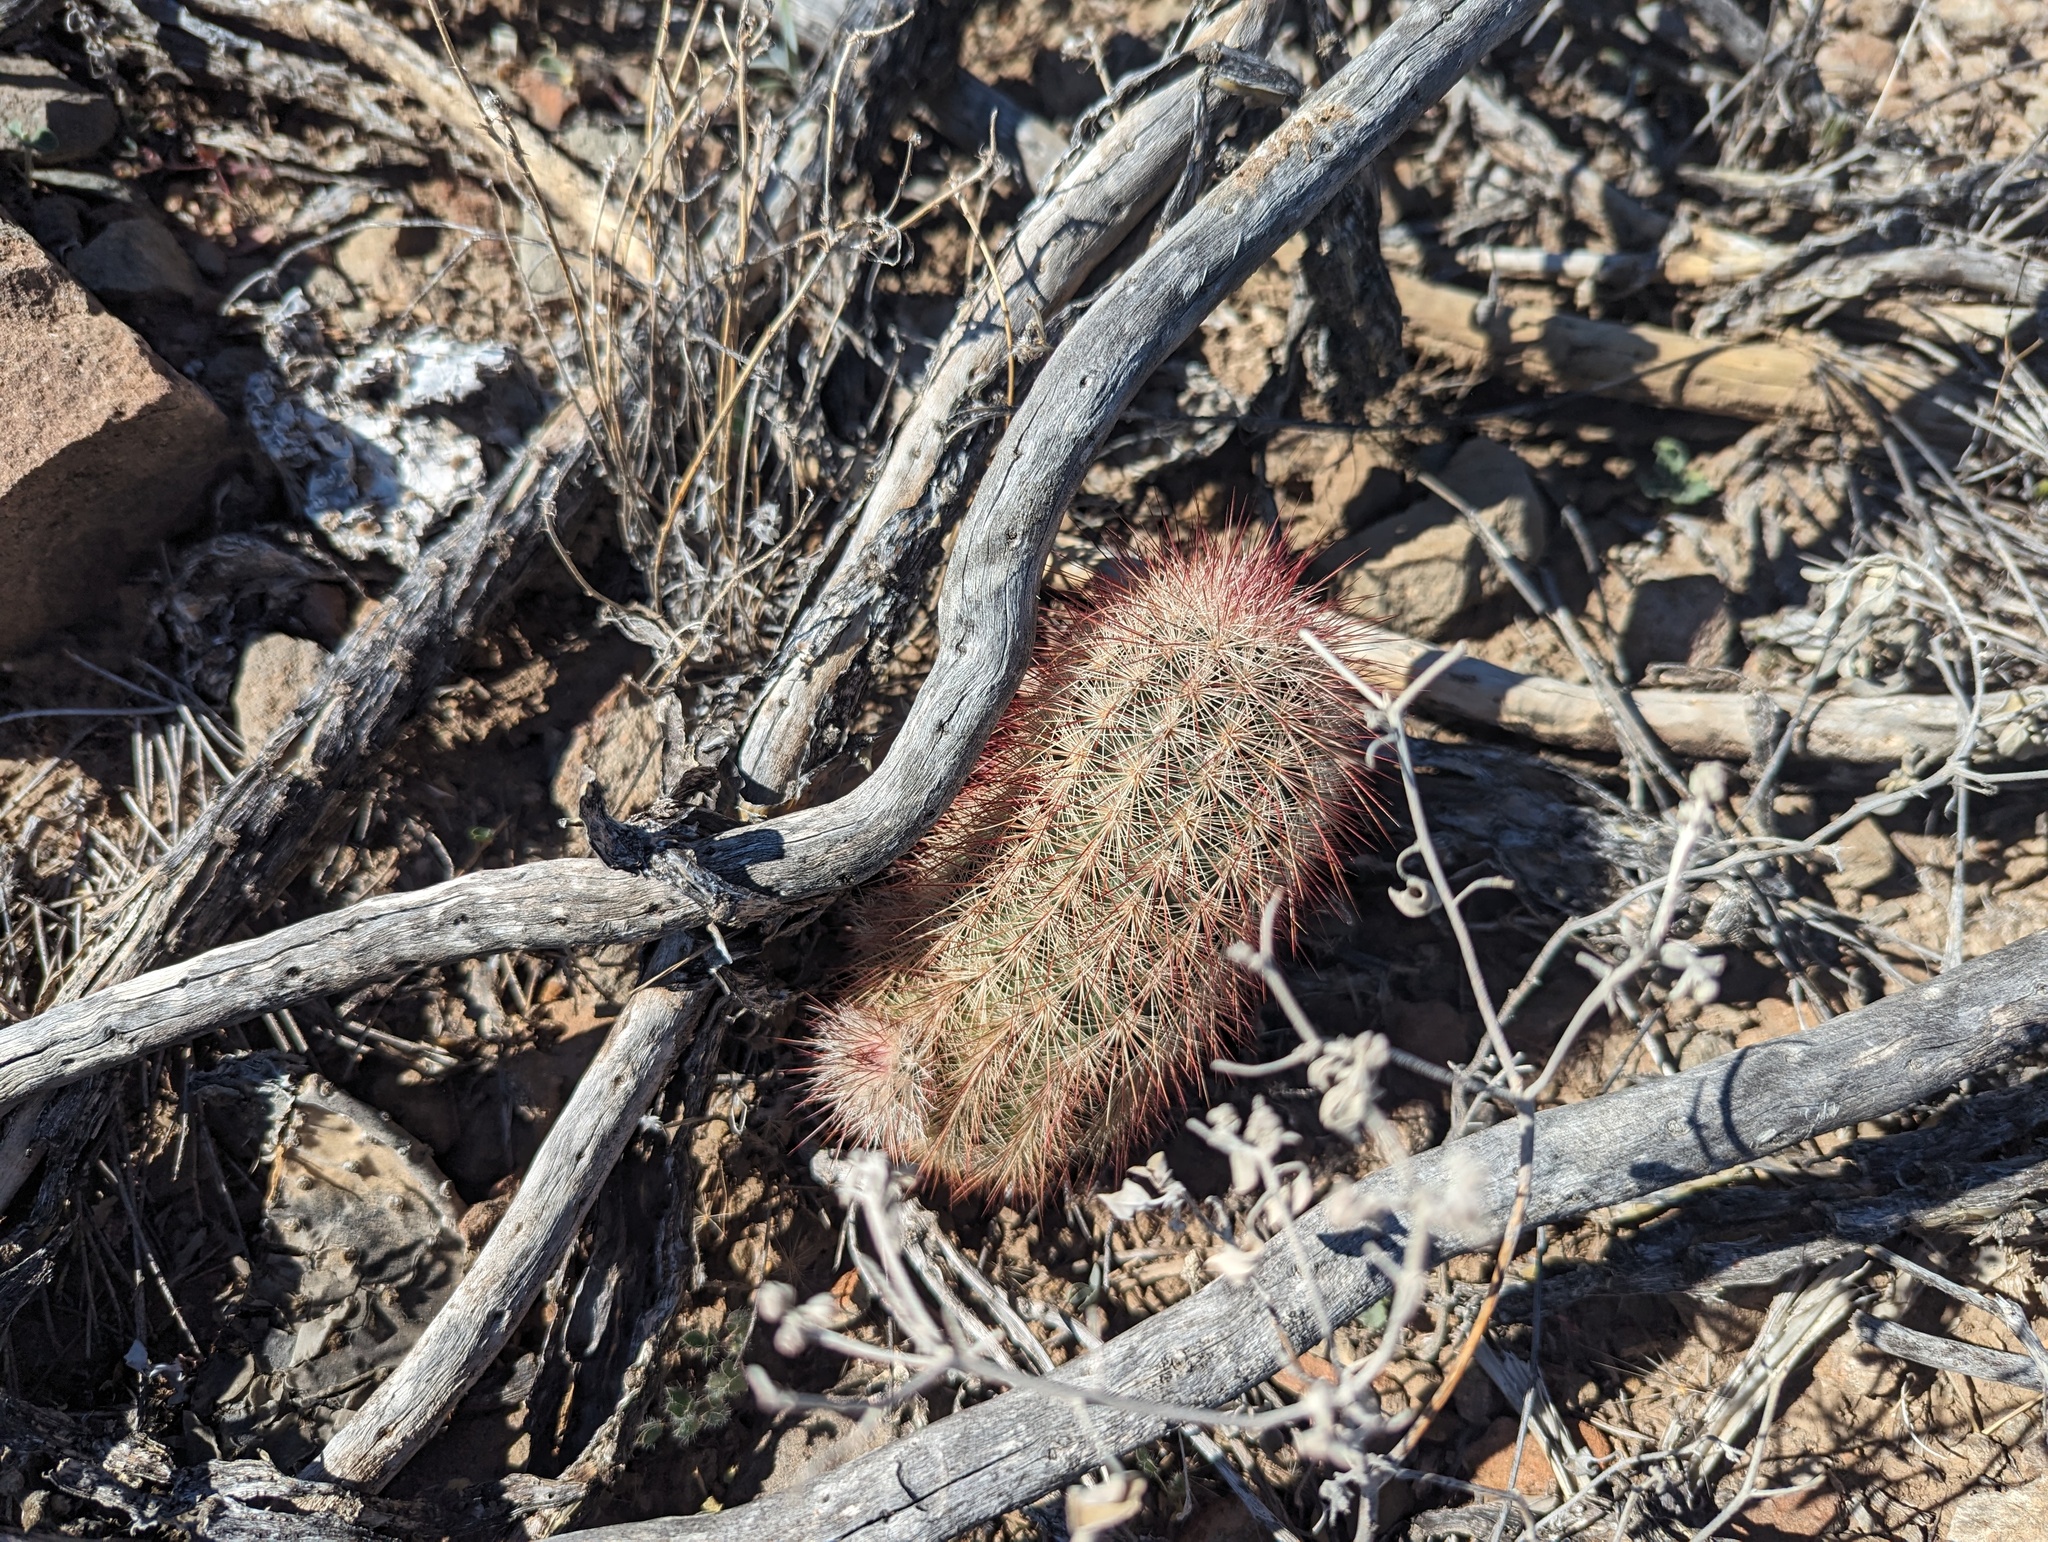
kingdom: Plantae
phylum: Tracheophyta
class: Magnoliopsida
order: Caryophyllales
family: Cactaceae
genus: Echinocereus
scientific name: Echinocereus russanthus
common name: Brownspine hedgehog cactus
